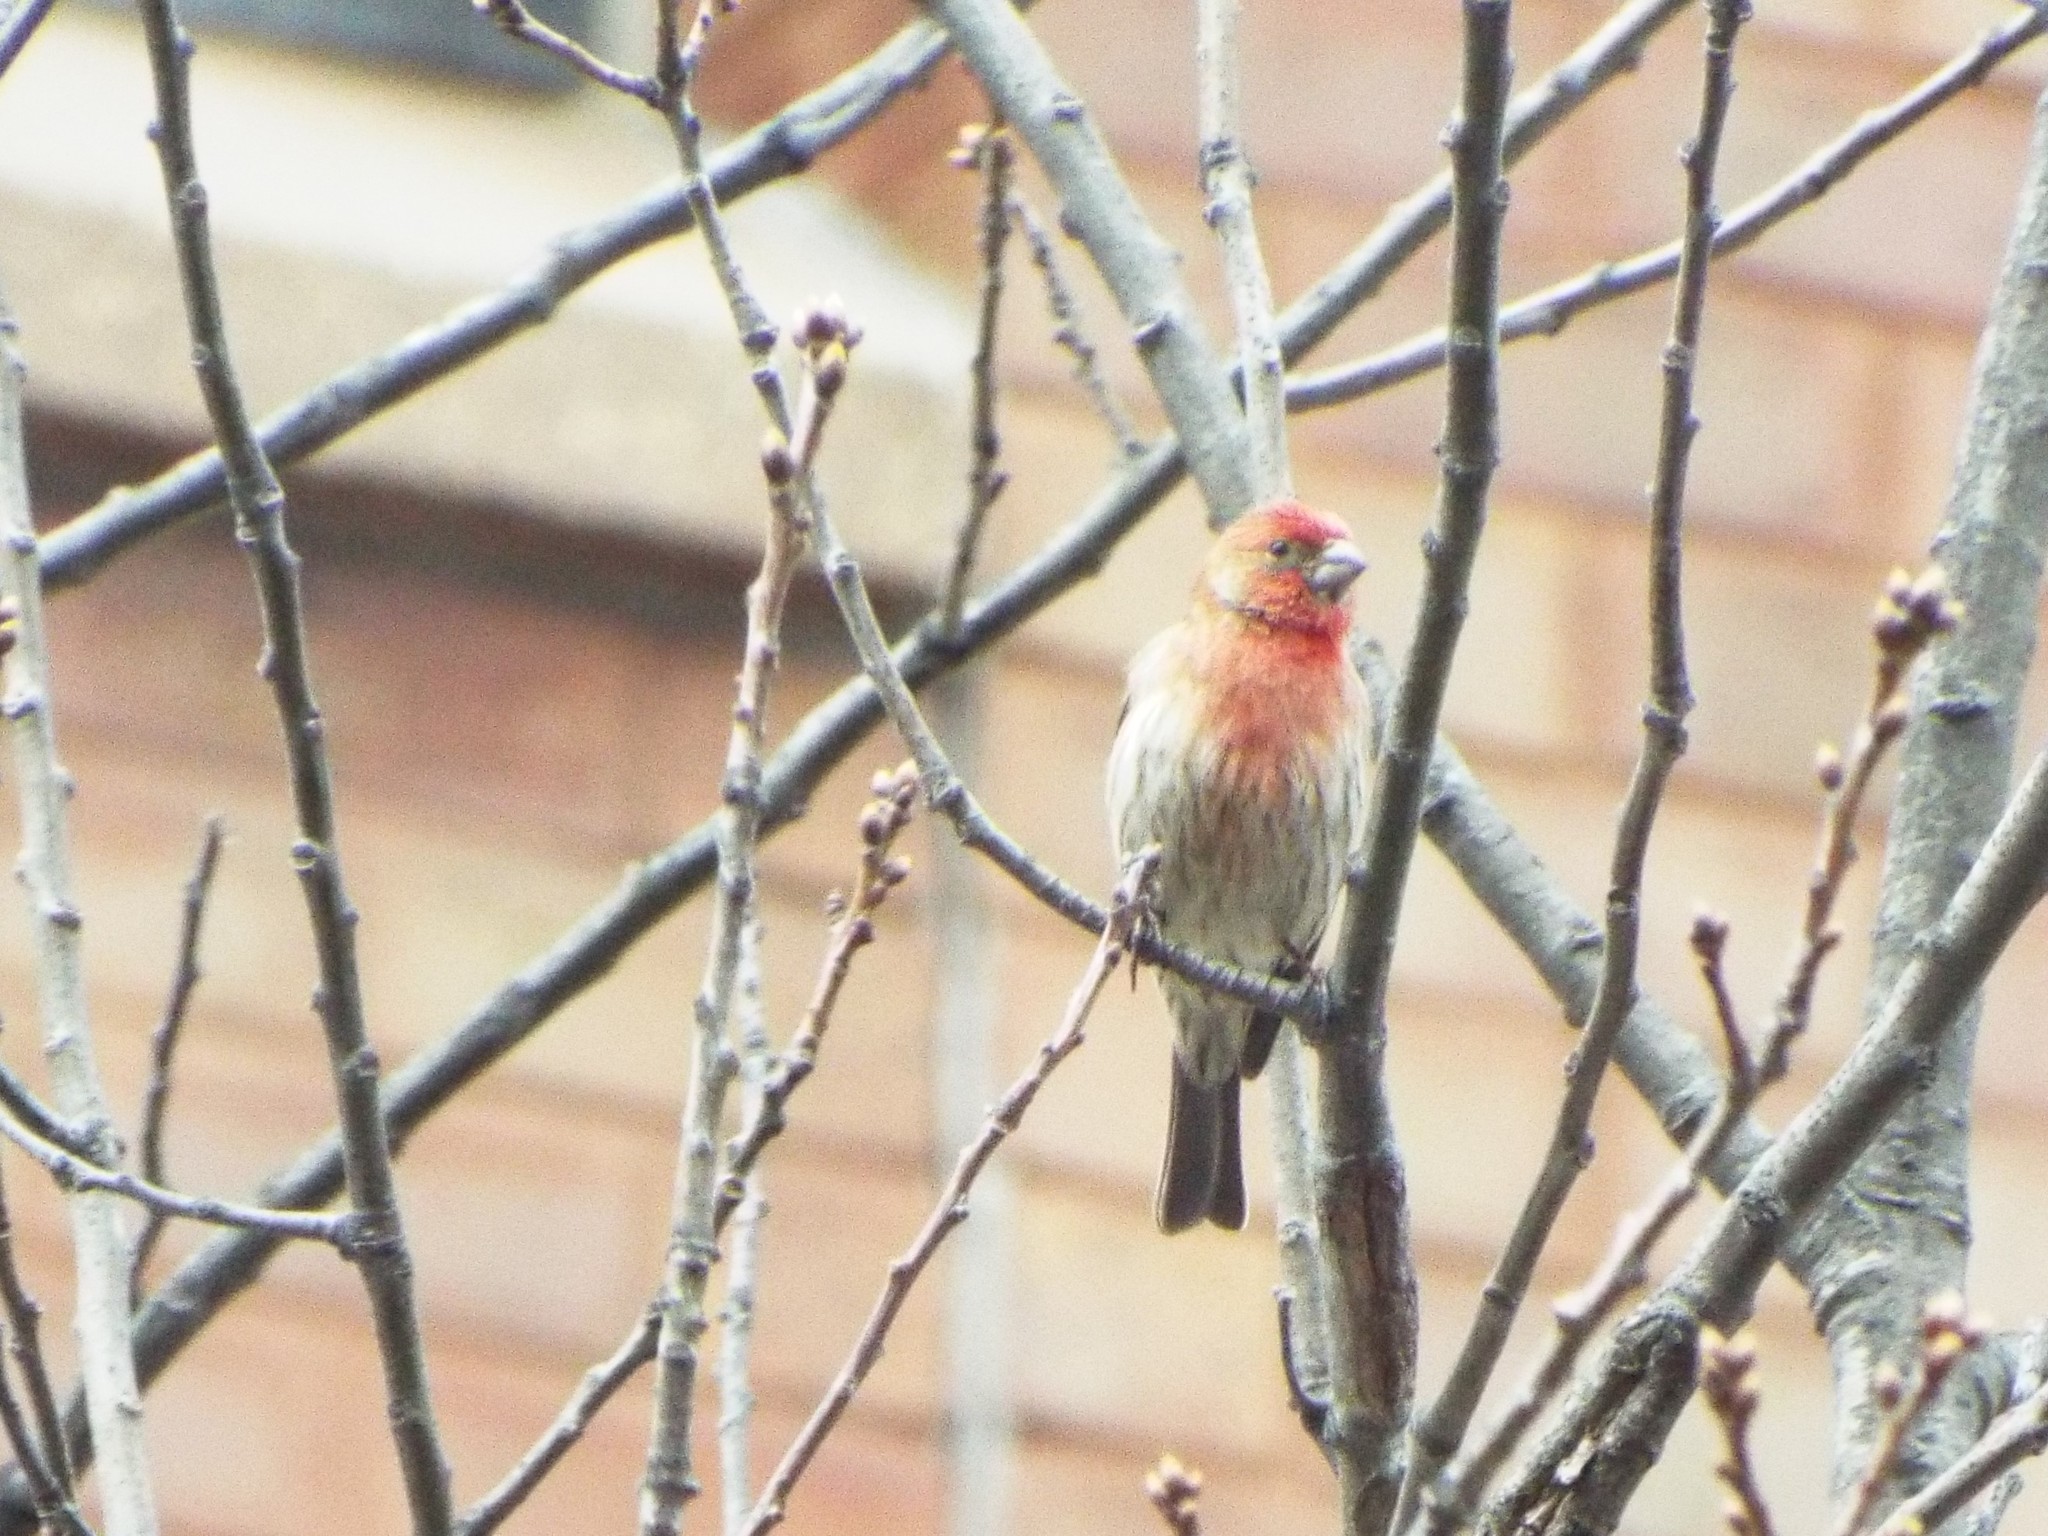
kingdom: Animalia
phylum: Chordata
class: Aves
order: Passeriformes
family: Fringillidae
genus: Haemorhous
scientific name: Haemorhous mexicanus
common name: House finch
